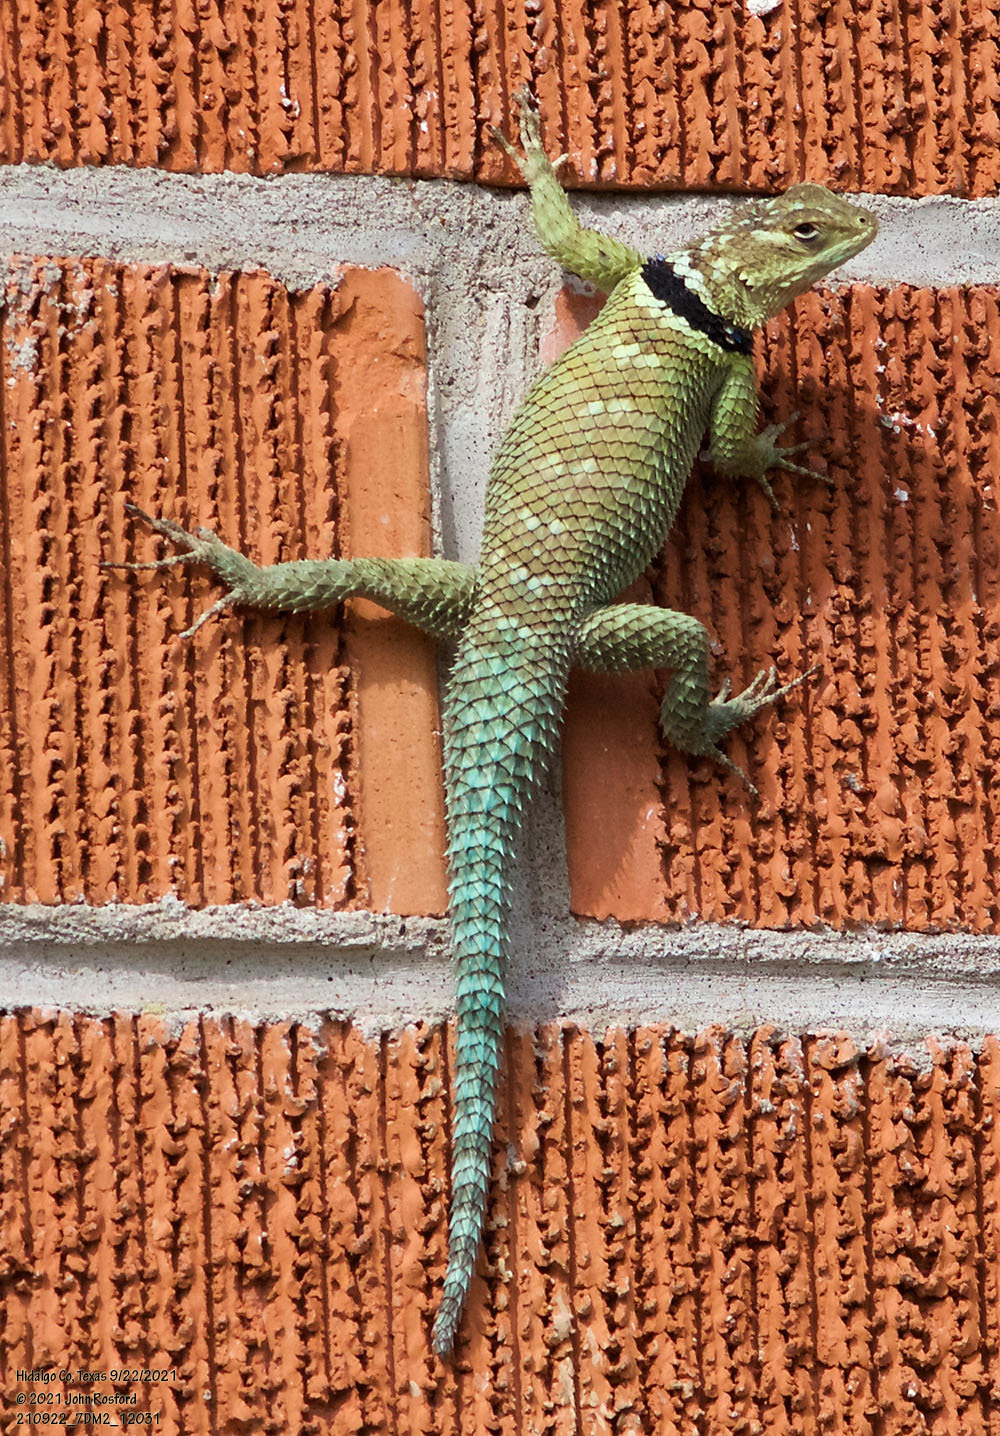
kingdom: Animalia
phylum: Chordata
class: Squamata
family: Phrynosomatidae
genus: Sceloporus
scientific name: Sceloporus cyanogenys
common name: Blue spiny lizard
